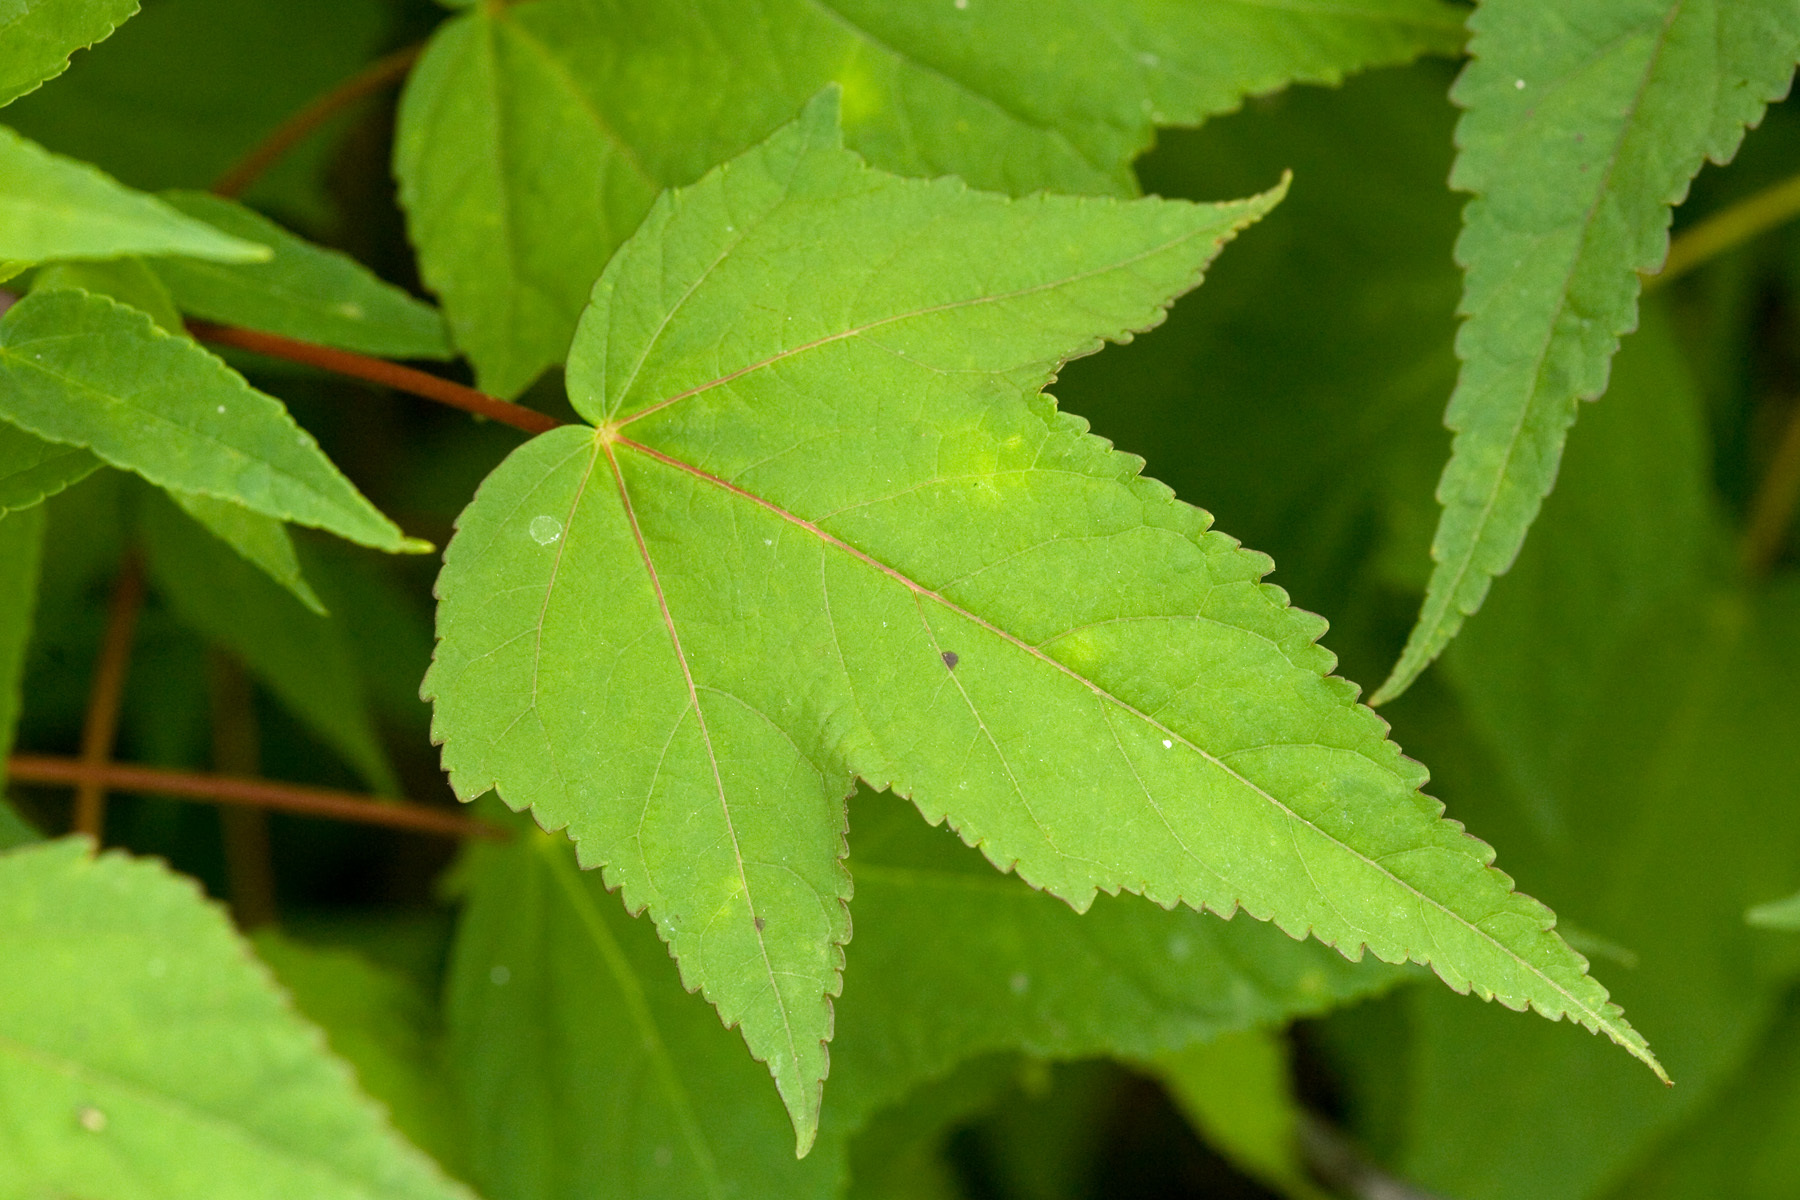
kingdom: Plantae
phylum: Tracheophyta
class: Magnoliopsida
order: Malvales
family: Malvaceae
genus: Hibiscus
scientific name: Hibiscus laevis
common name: Scarlet rose-mallow
